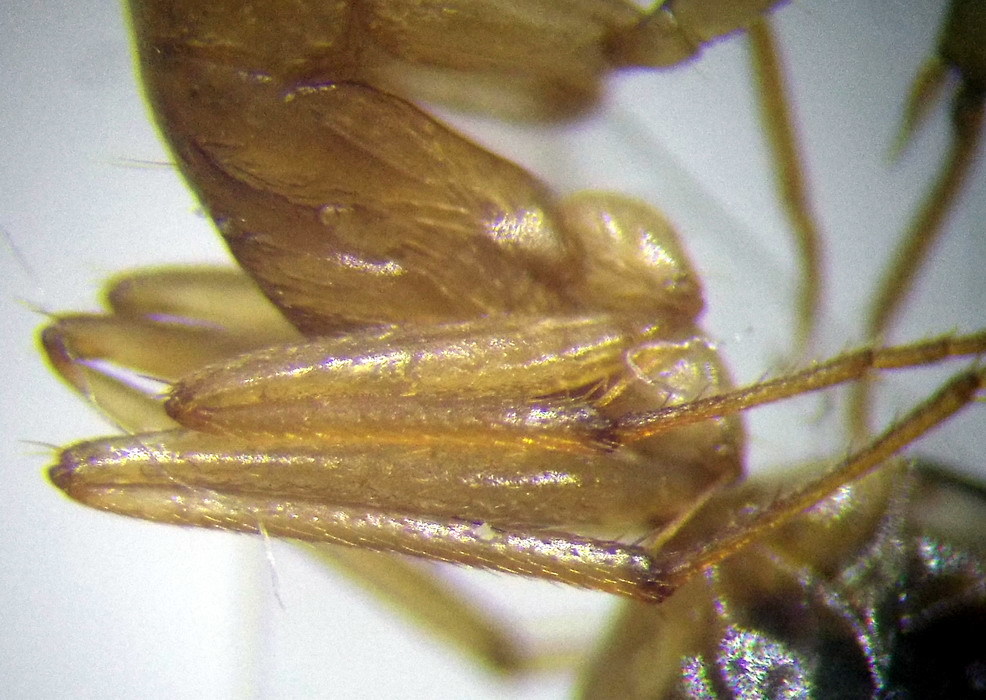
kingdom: Animalia
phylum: Arthropoda
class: Insecta
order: Hymenoptera
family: Formicidae
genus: Camponotus
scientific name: Camponotus fedtschenkoi
